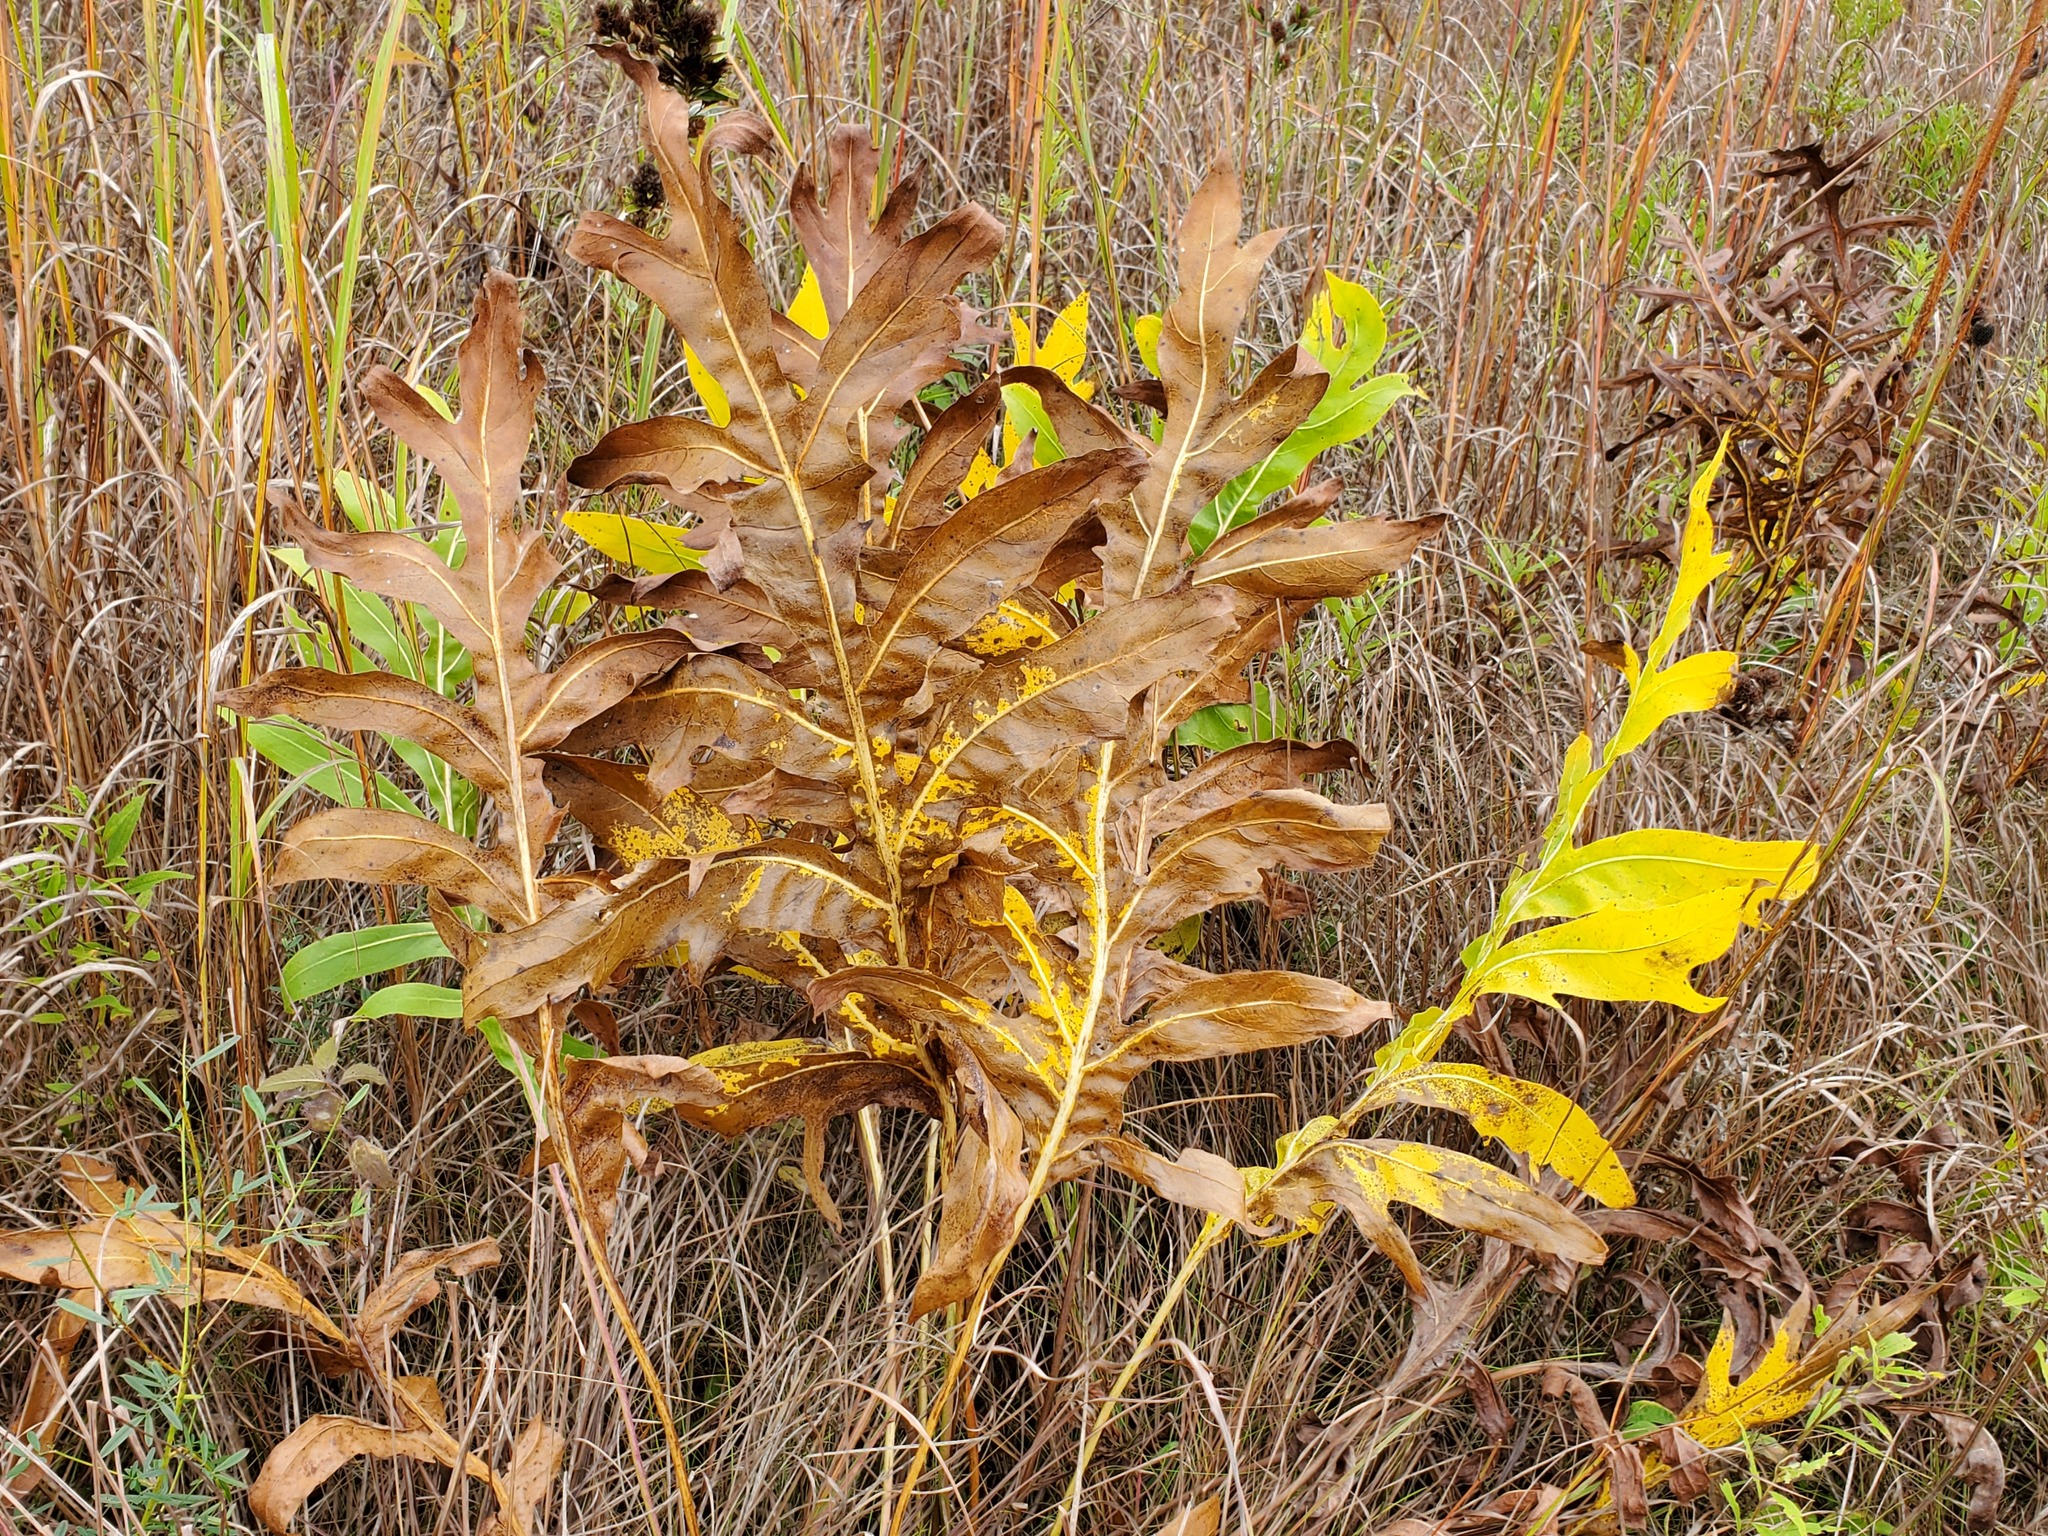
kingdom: Plantae
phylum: Tracheophyta
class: Magnoliopsida
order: Asterales
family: Asteraceae
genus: Silphium
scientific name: Silphium laciniatum
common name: Polarplant
